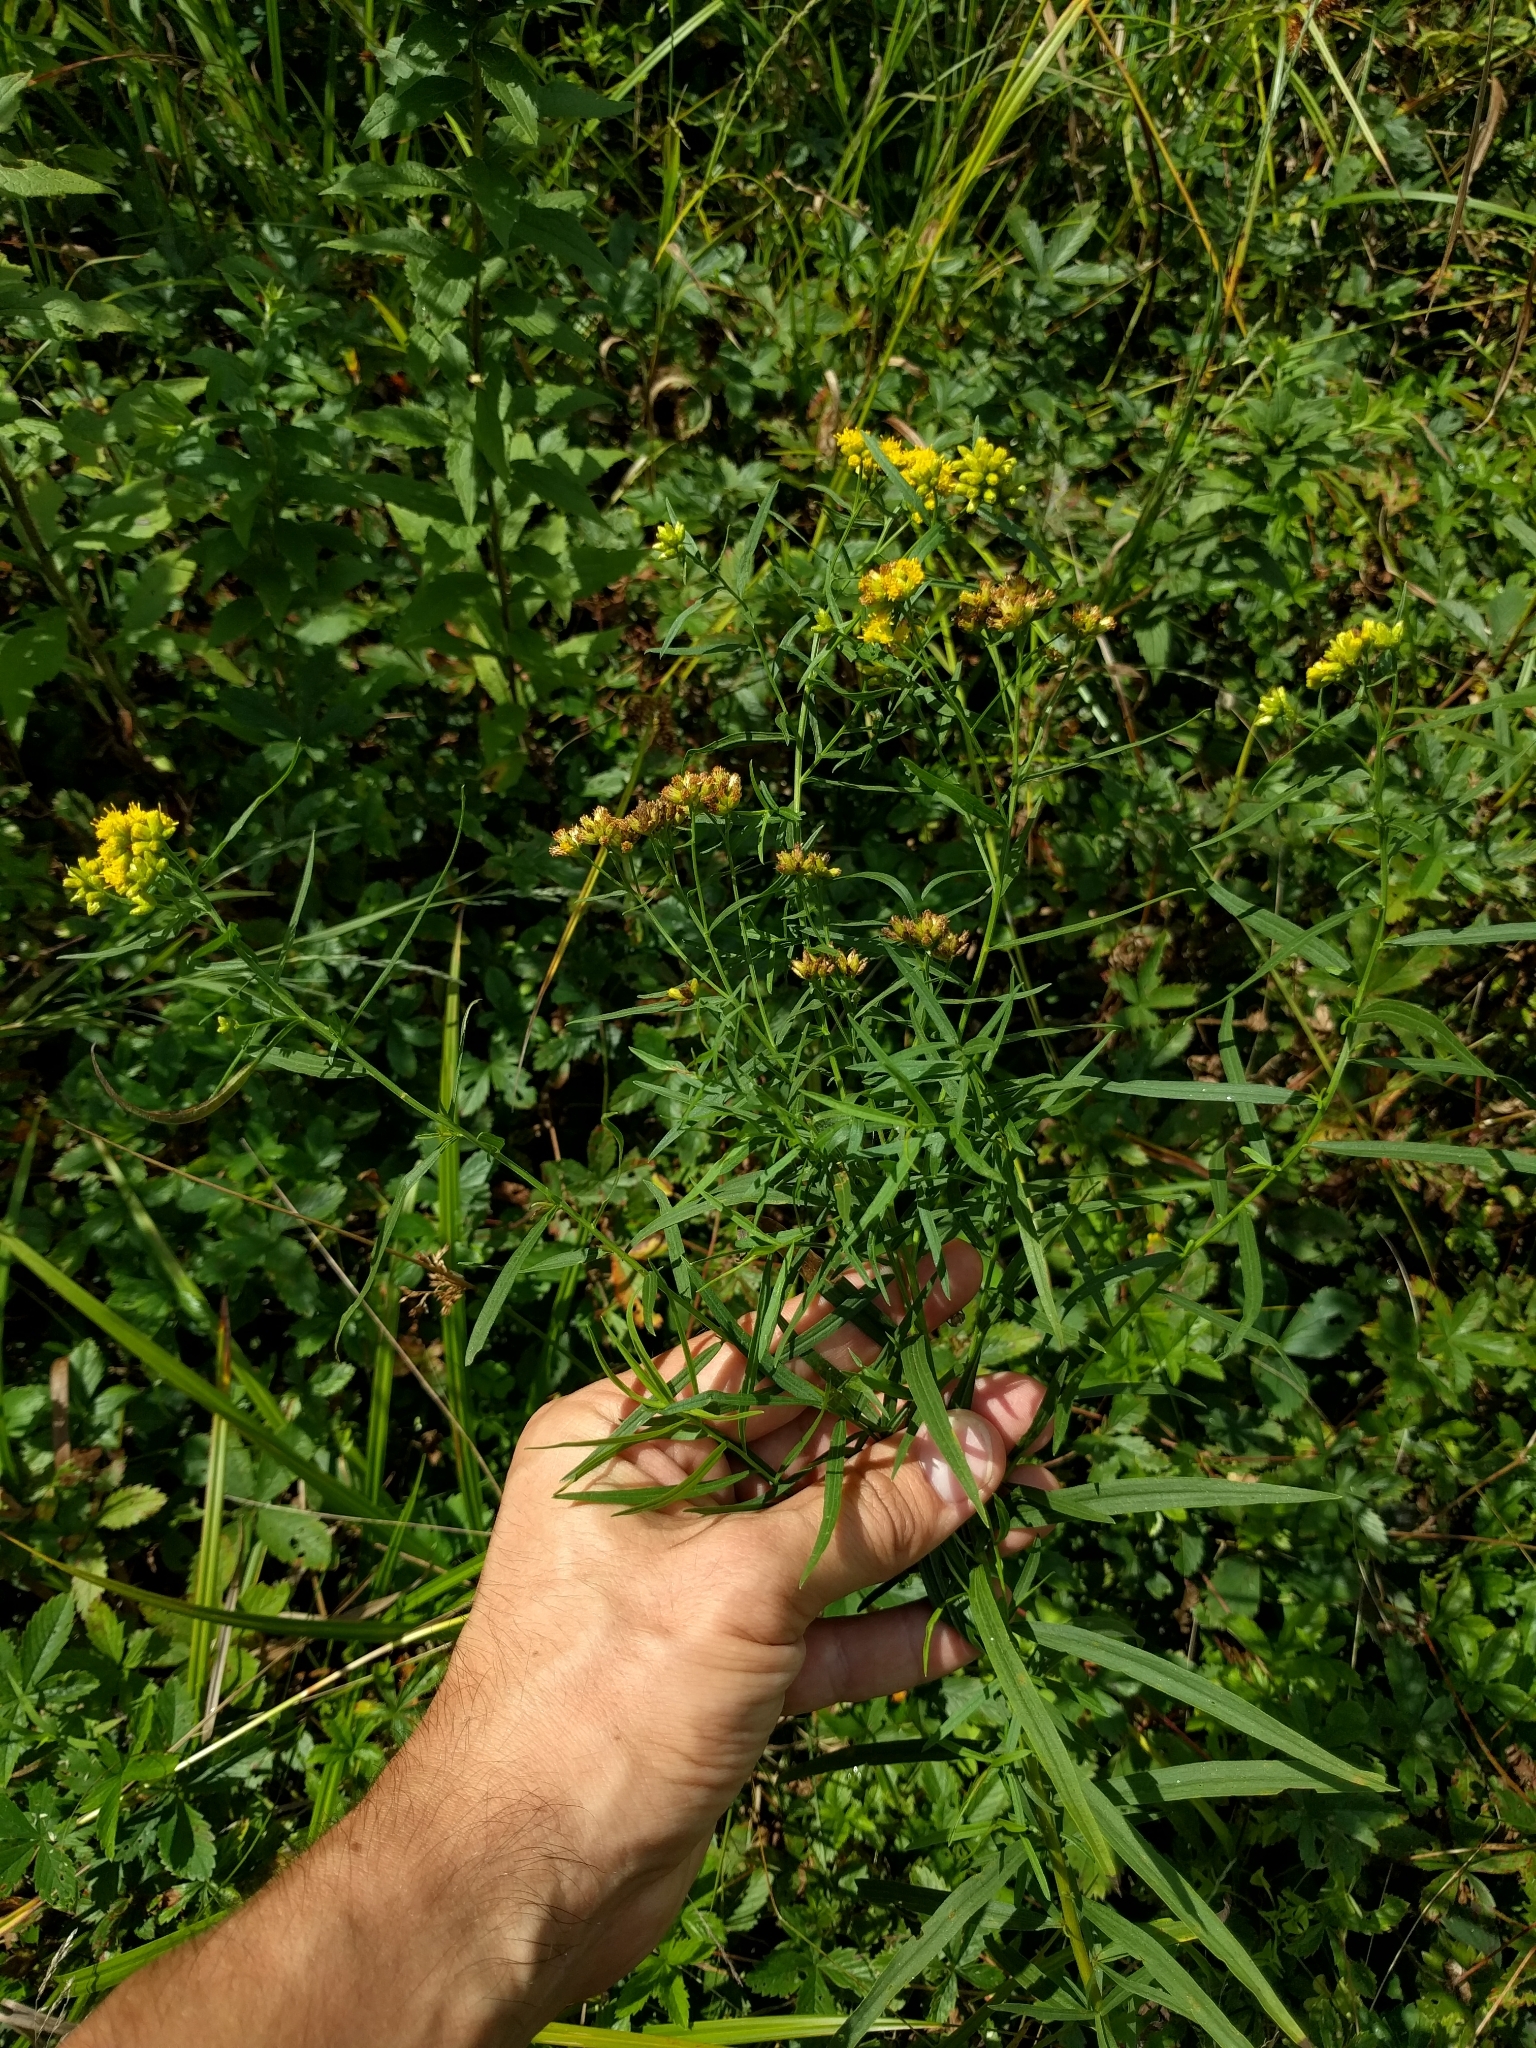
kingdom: Plantae
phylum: Tracheophyta
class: Magnoliopsida
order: Asterales
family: Asteraceae
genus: Euthamia
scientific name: Euthamia graminifolia
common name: Common goldentop
